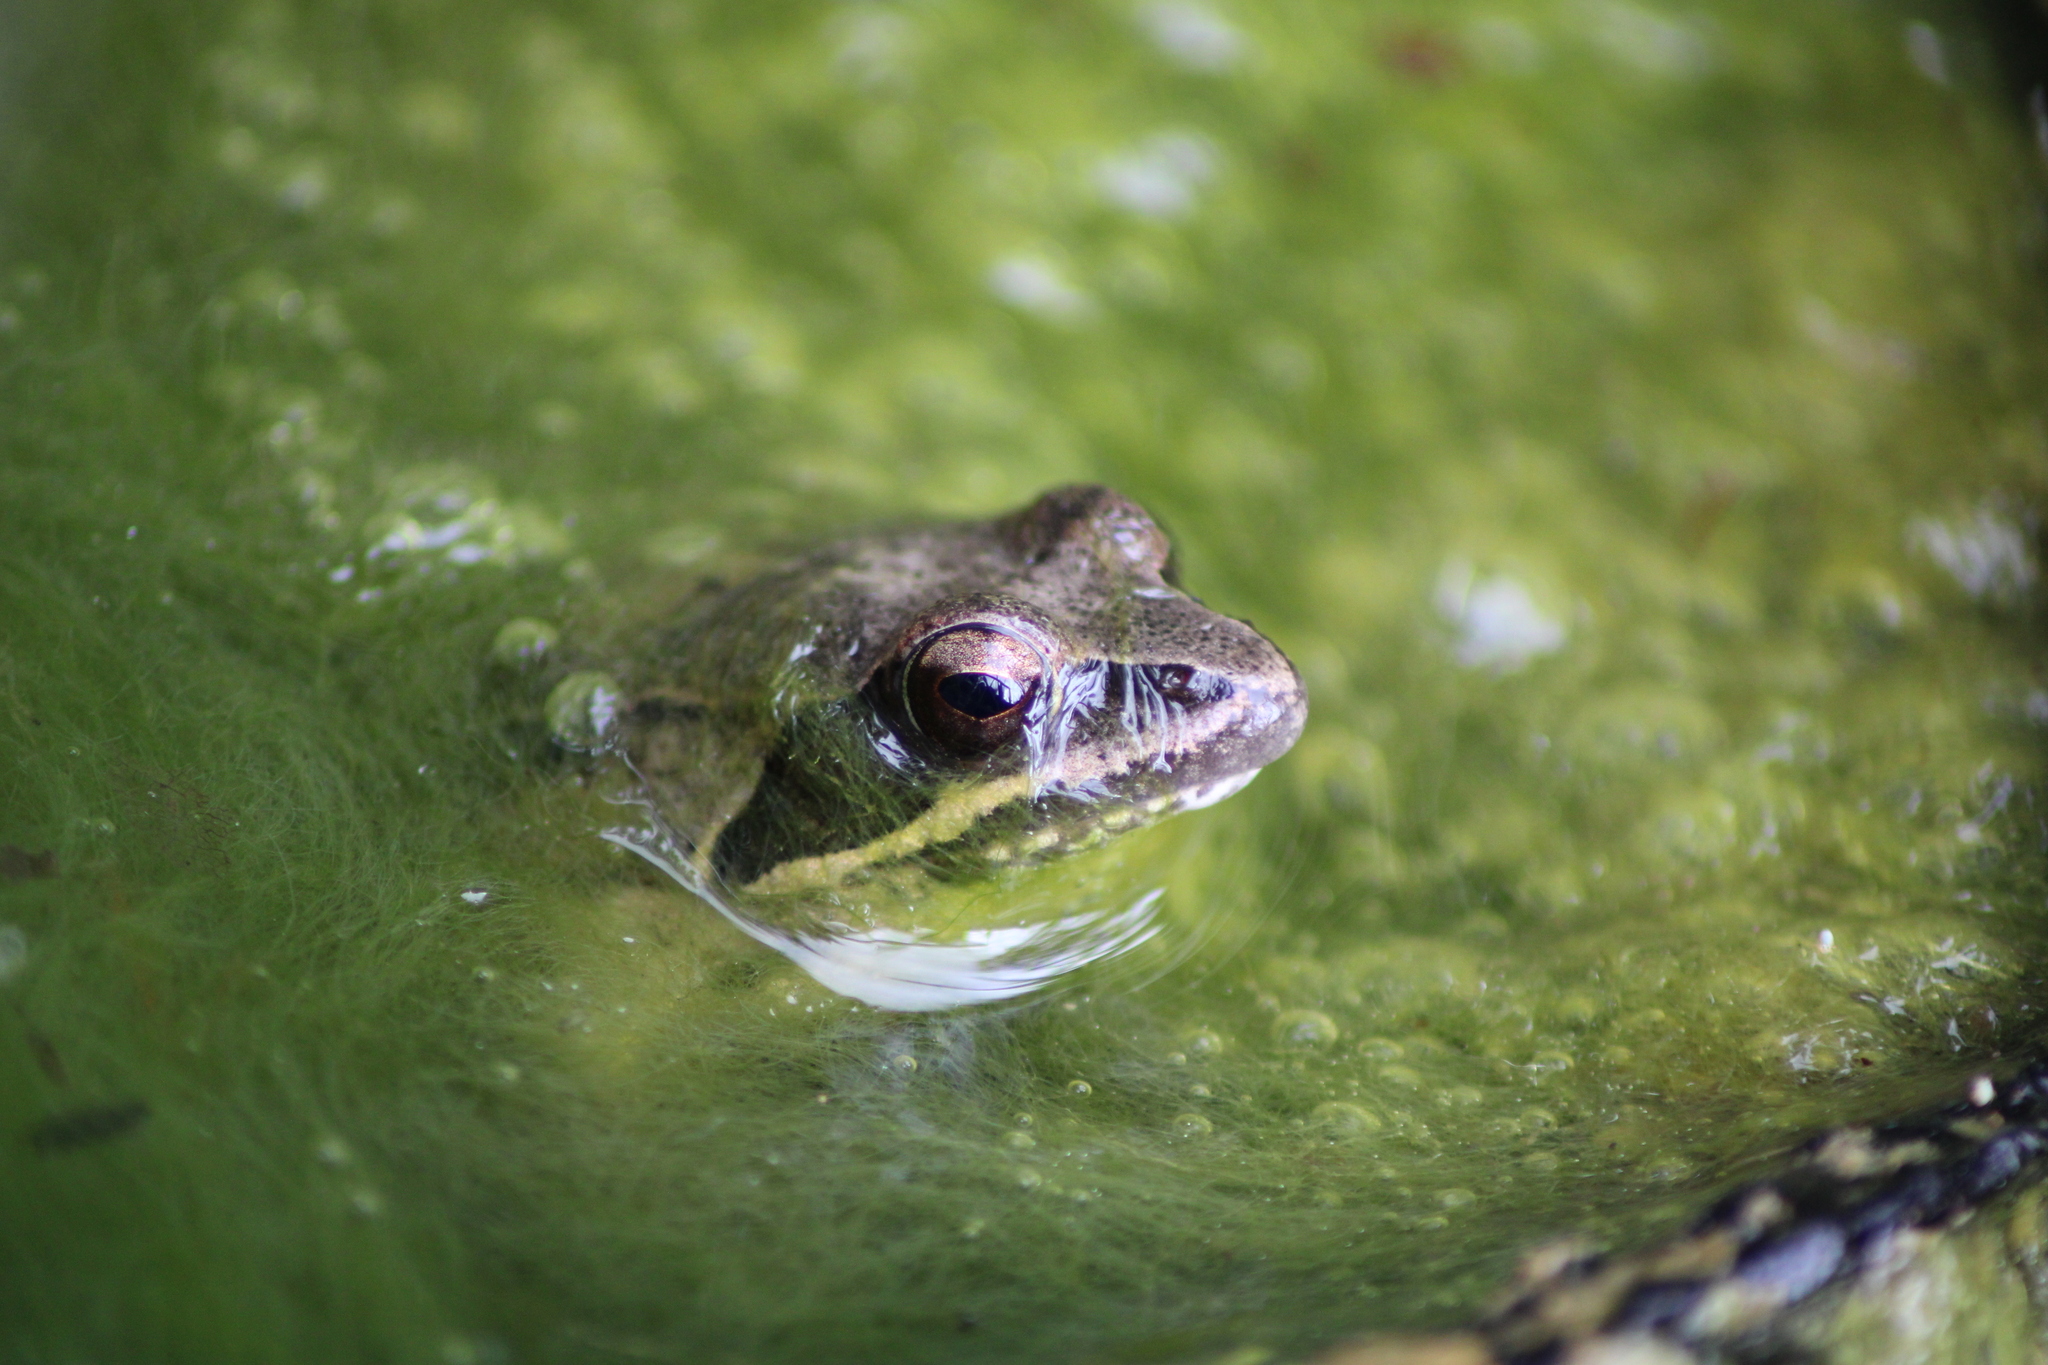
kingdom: Animalia
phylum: Chordata
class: Amphibia
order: Anura
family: Ranidae
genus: Rana
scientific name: Rana dalmatina
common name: Agile frog
